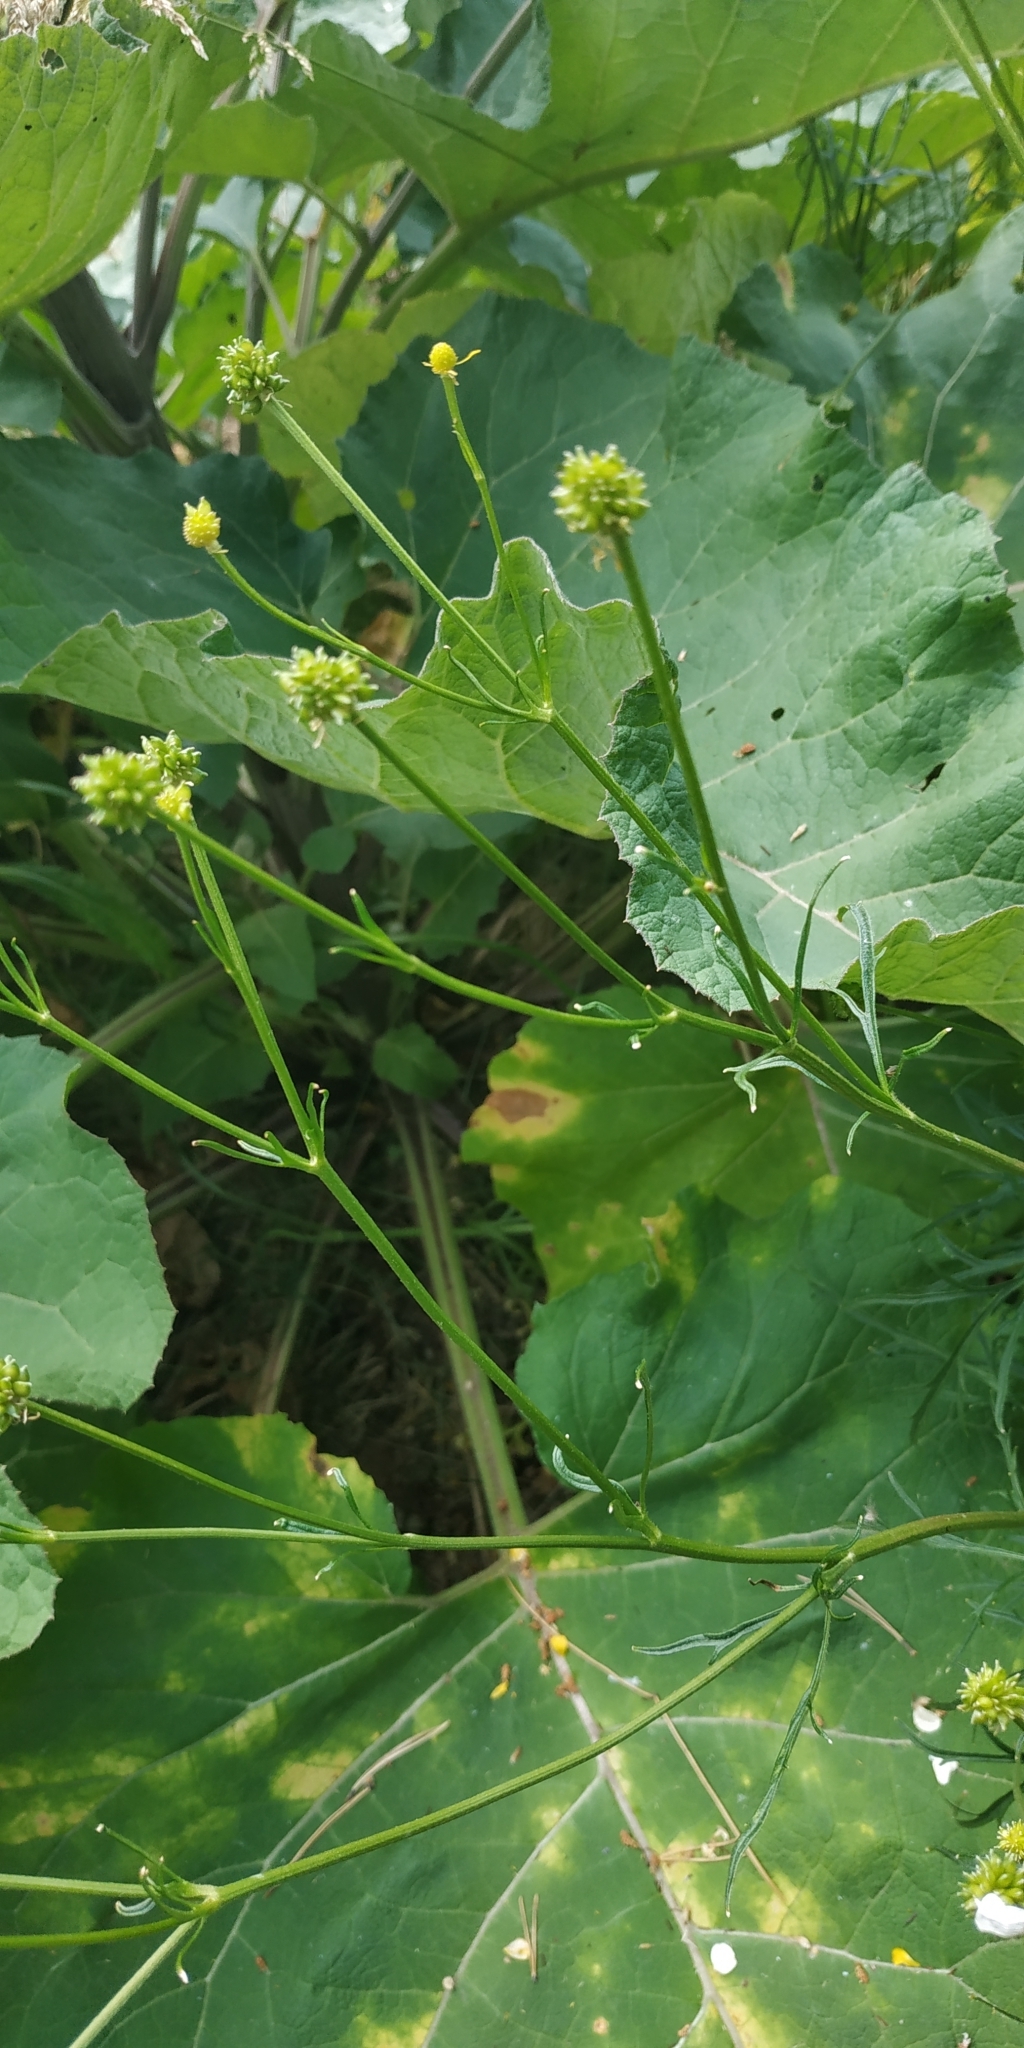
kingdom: Plantae
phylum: Tracheophyta
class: Magnoliopsida
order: Ranunculales
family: Ranunculaceae
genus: Ranunculus
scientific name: Ranunculus polyanthemos
